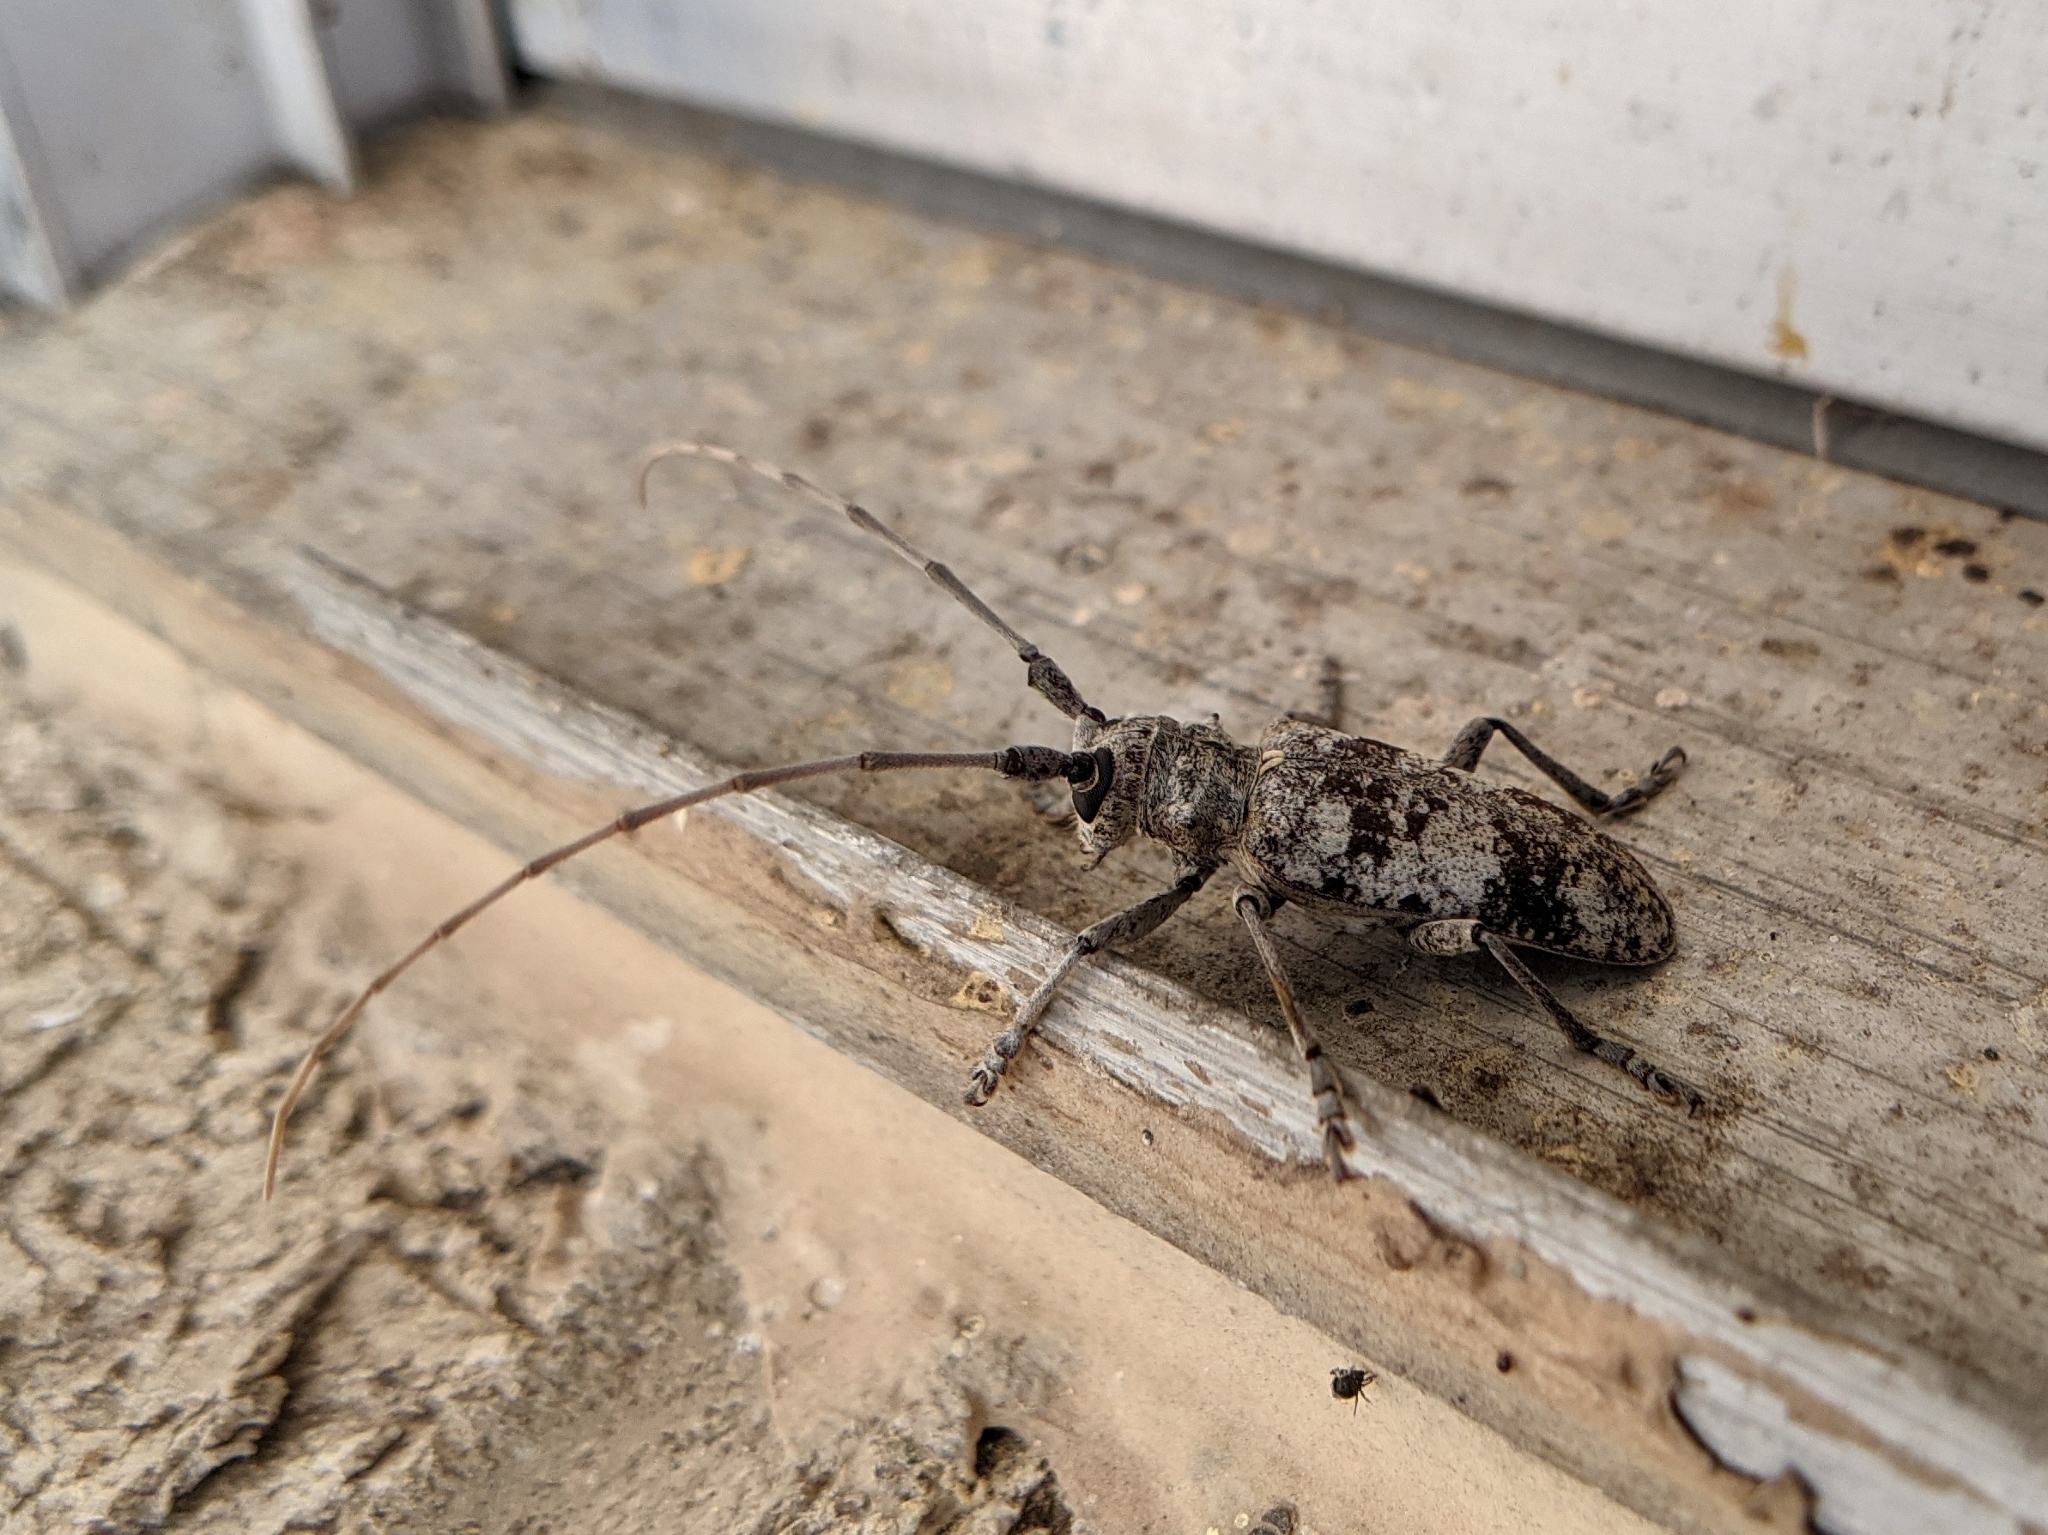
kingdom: Animalia
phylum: Arthropoda
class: Insecta
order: Coleoptera
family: Cerambycidae
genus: Goes
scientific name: Goes tigrinus
